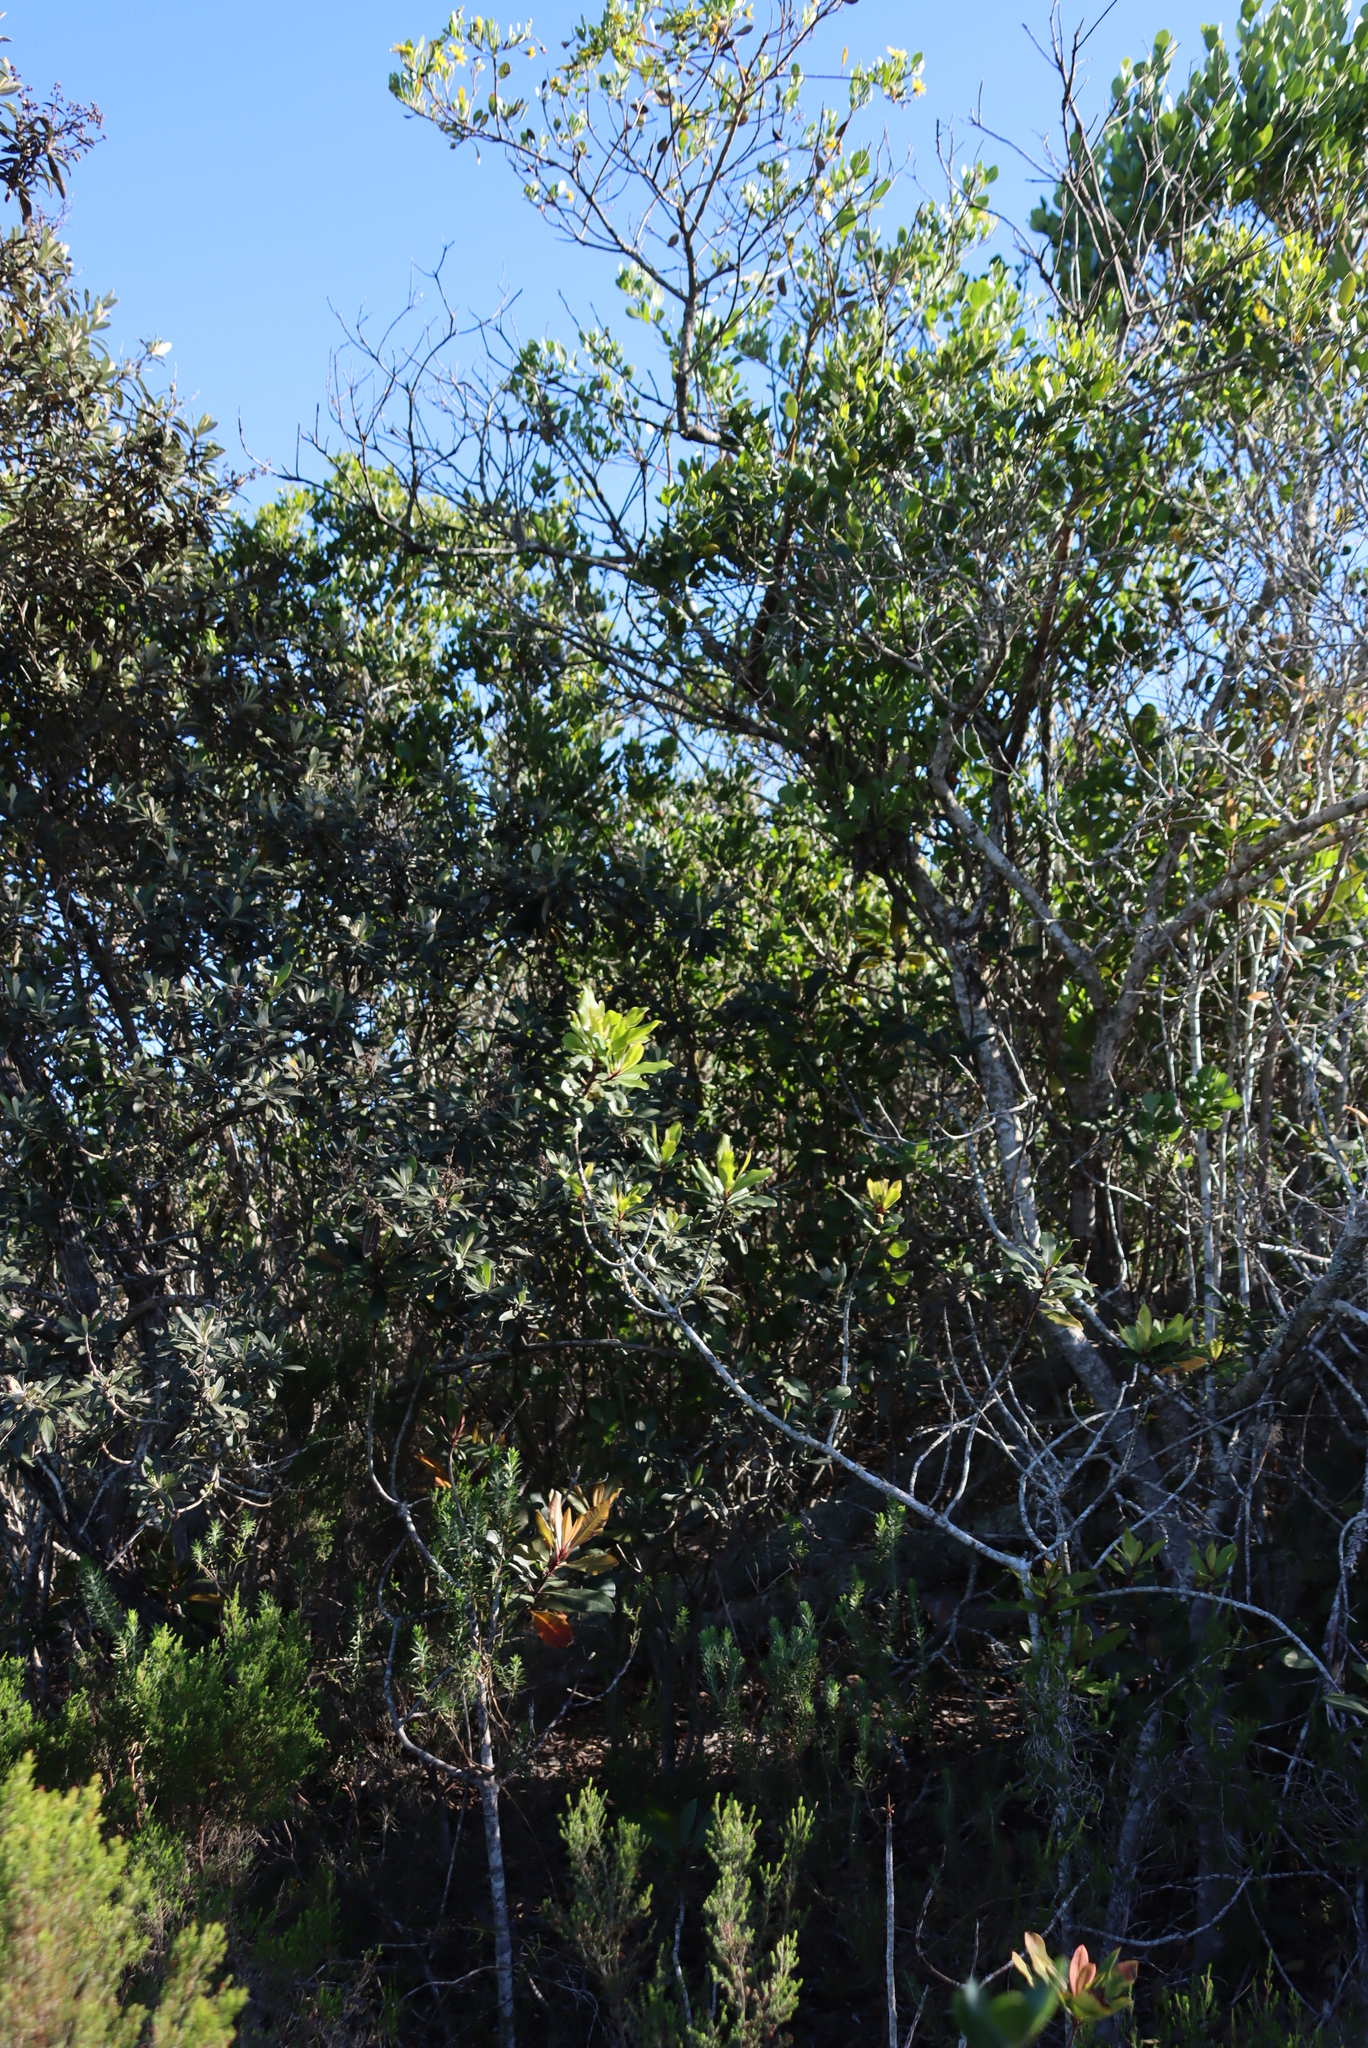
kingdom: Plantae
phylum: Tracheophyta
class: Magnoliopsida
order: Ericales
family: Primulaceae
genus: Myrsine
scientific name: Myrsine melanophloeos
